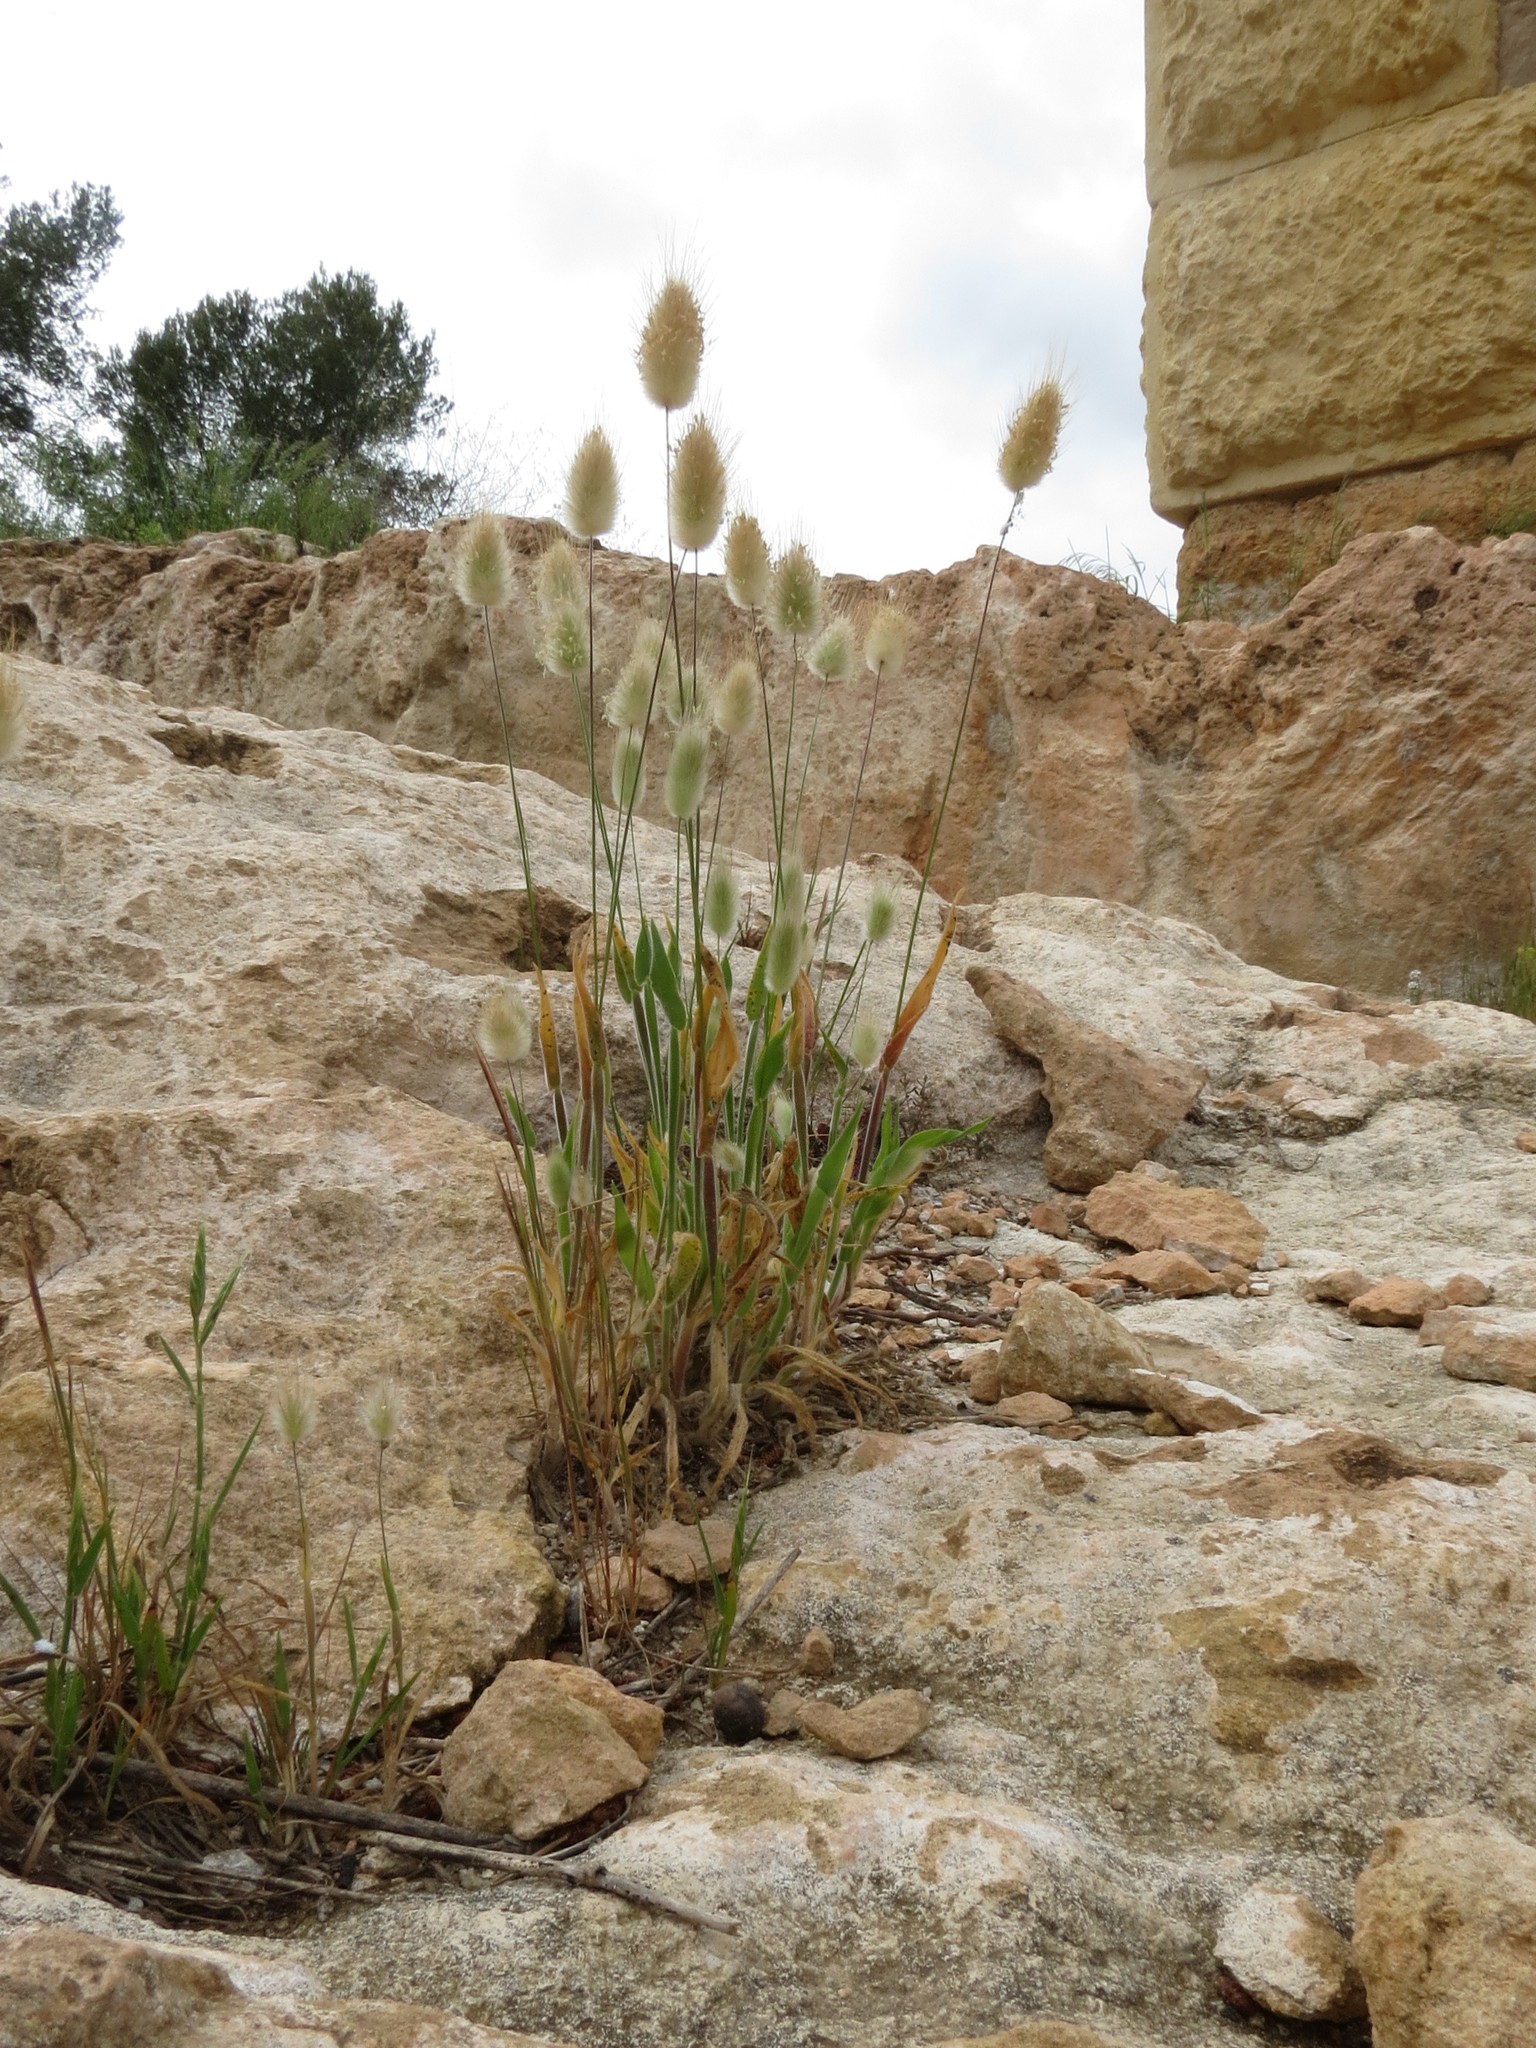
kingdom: Plantae
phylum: Tracheophyta
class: Liliopsida
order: Poales
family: Poaceae
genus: Lagurus
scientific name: Lagurus ovatus
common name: Hare's-tail
